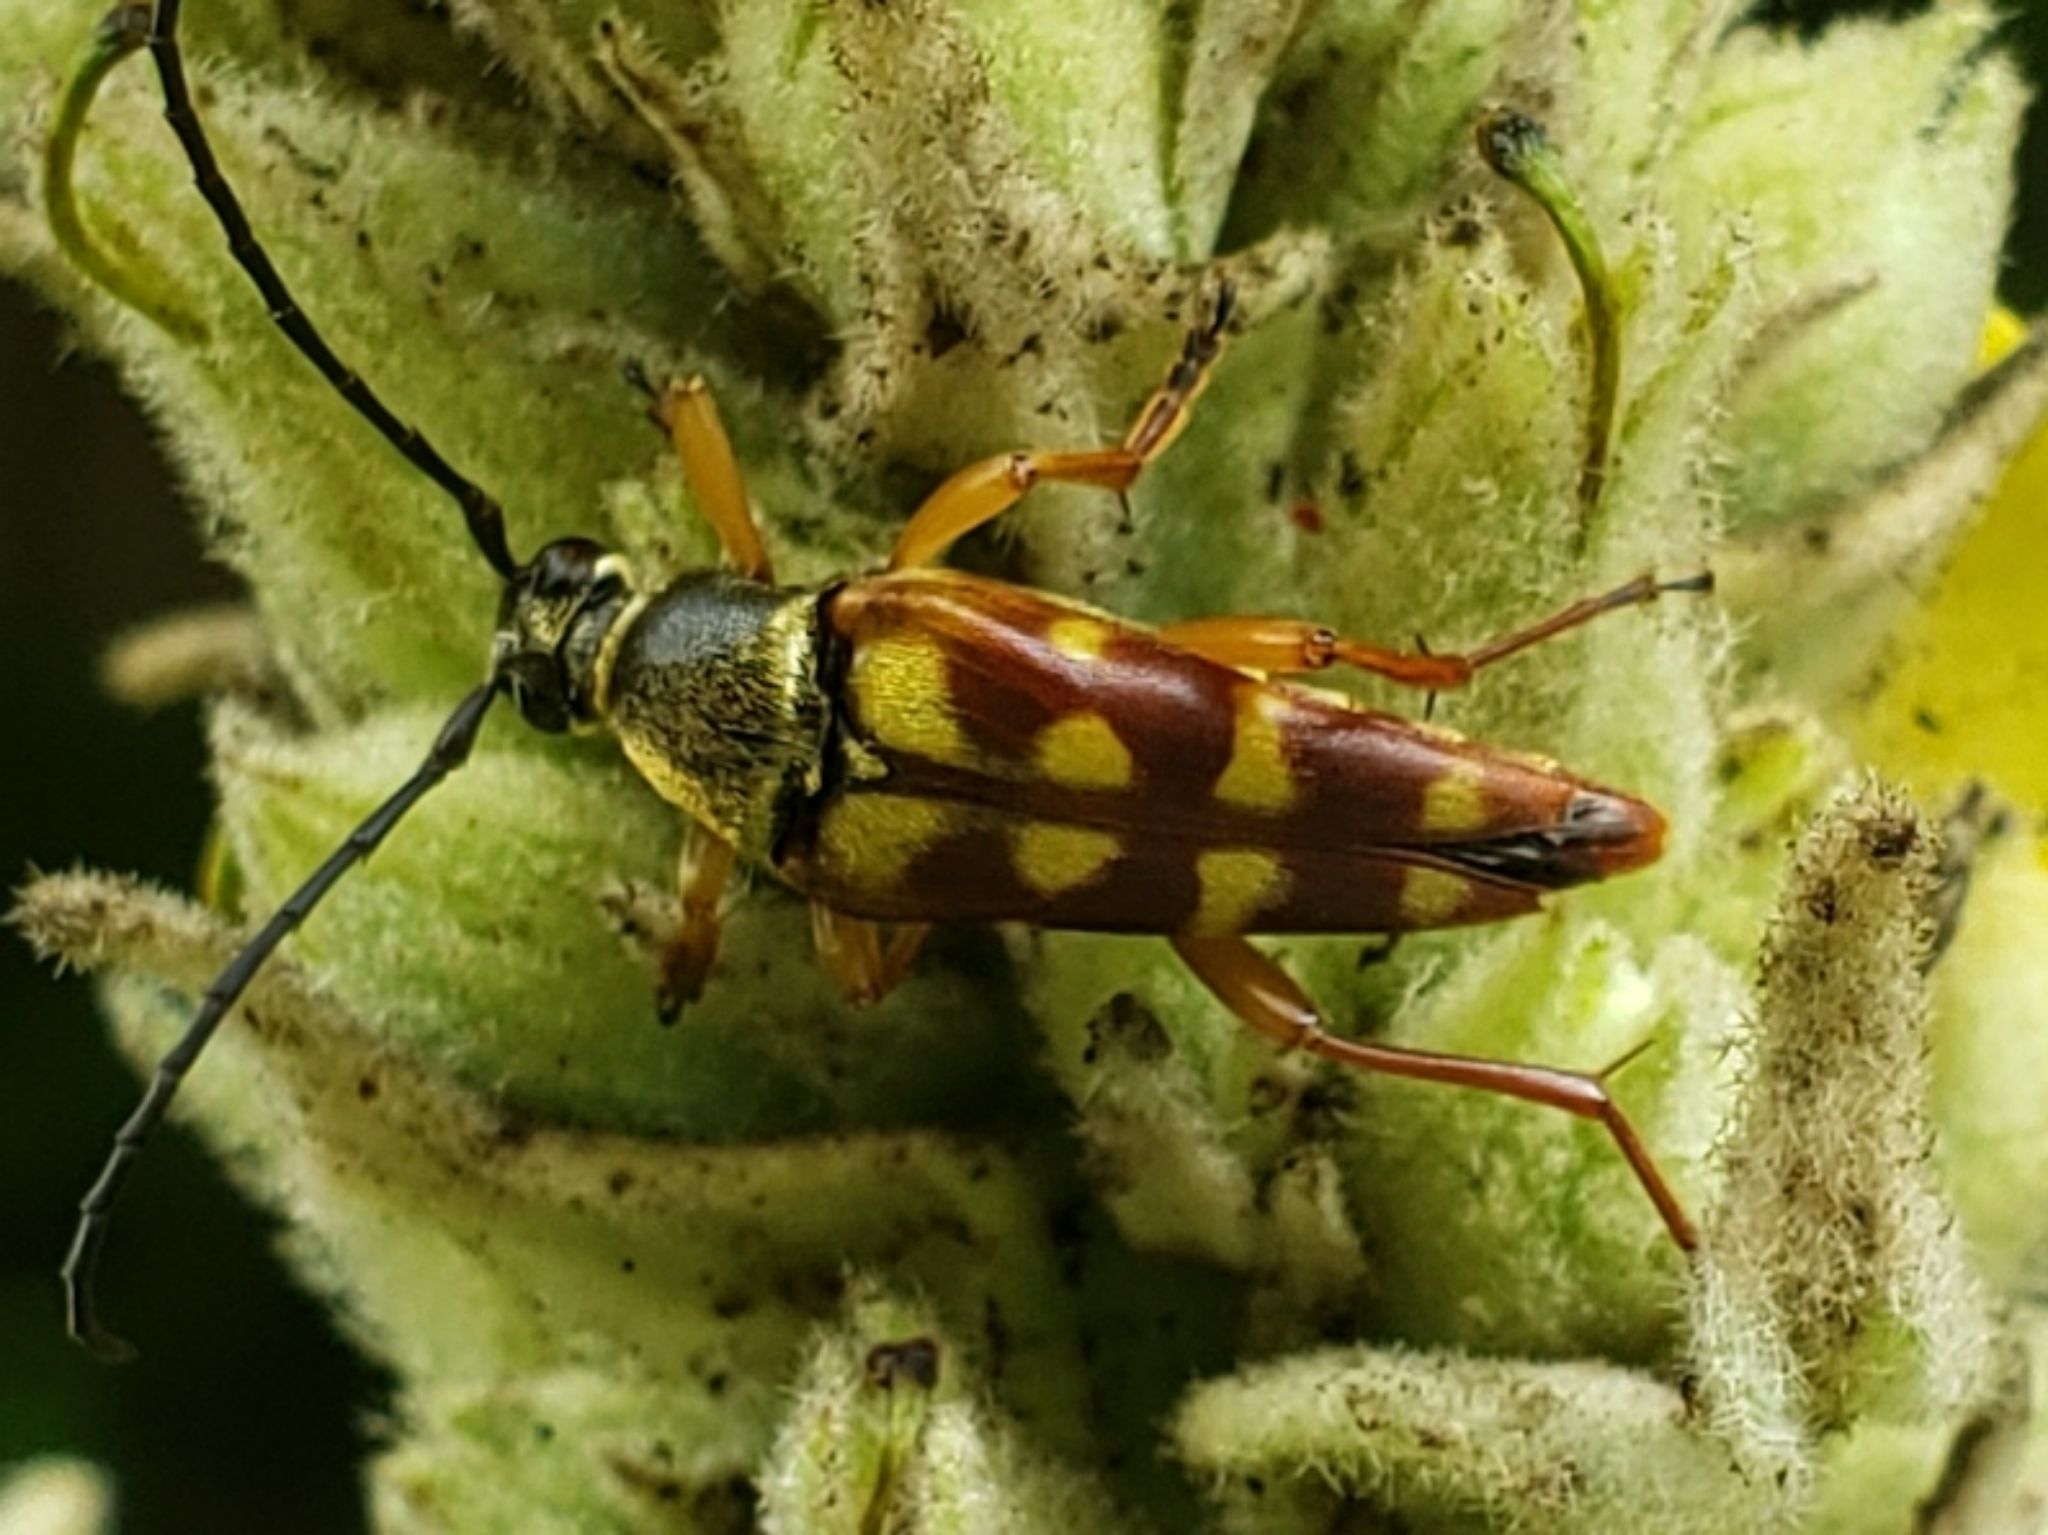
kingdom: Animalia
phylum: Arthropoda
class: Insecta
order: Coleoptera
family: Cerambycidae
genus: Typocerus
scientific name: Typocerus velutinus
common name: Banded longhorn beetle
